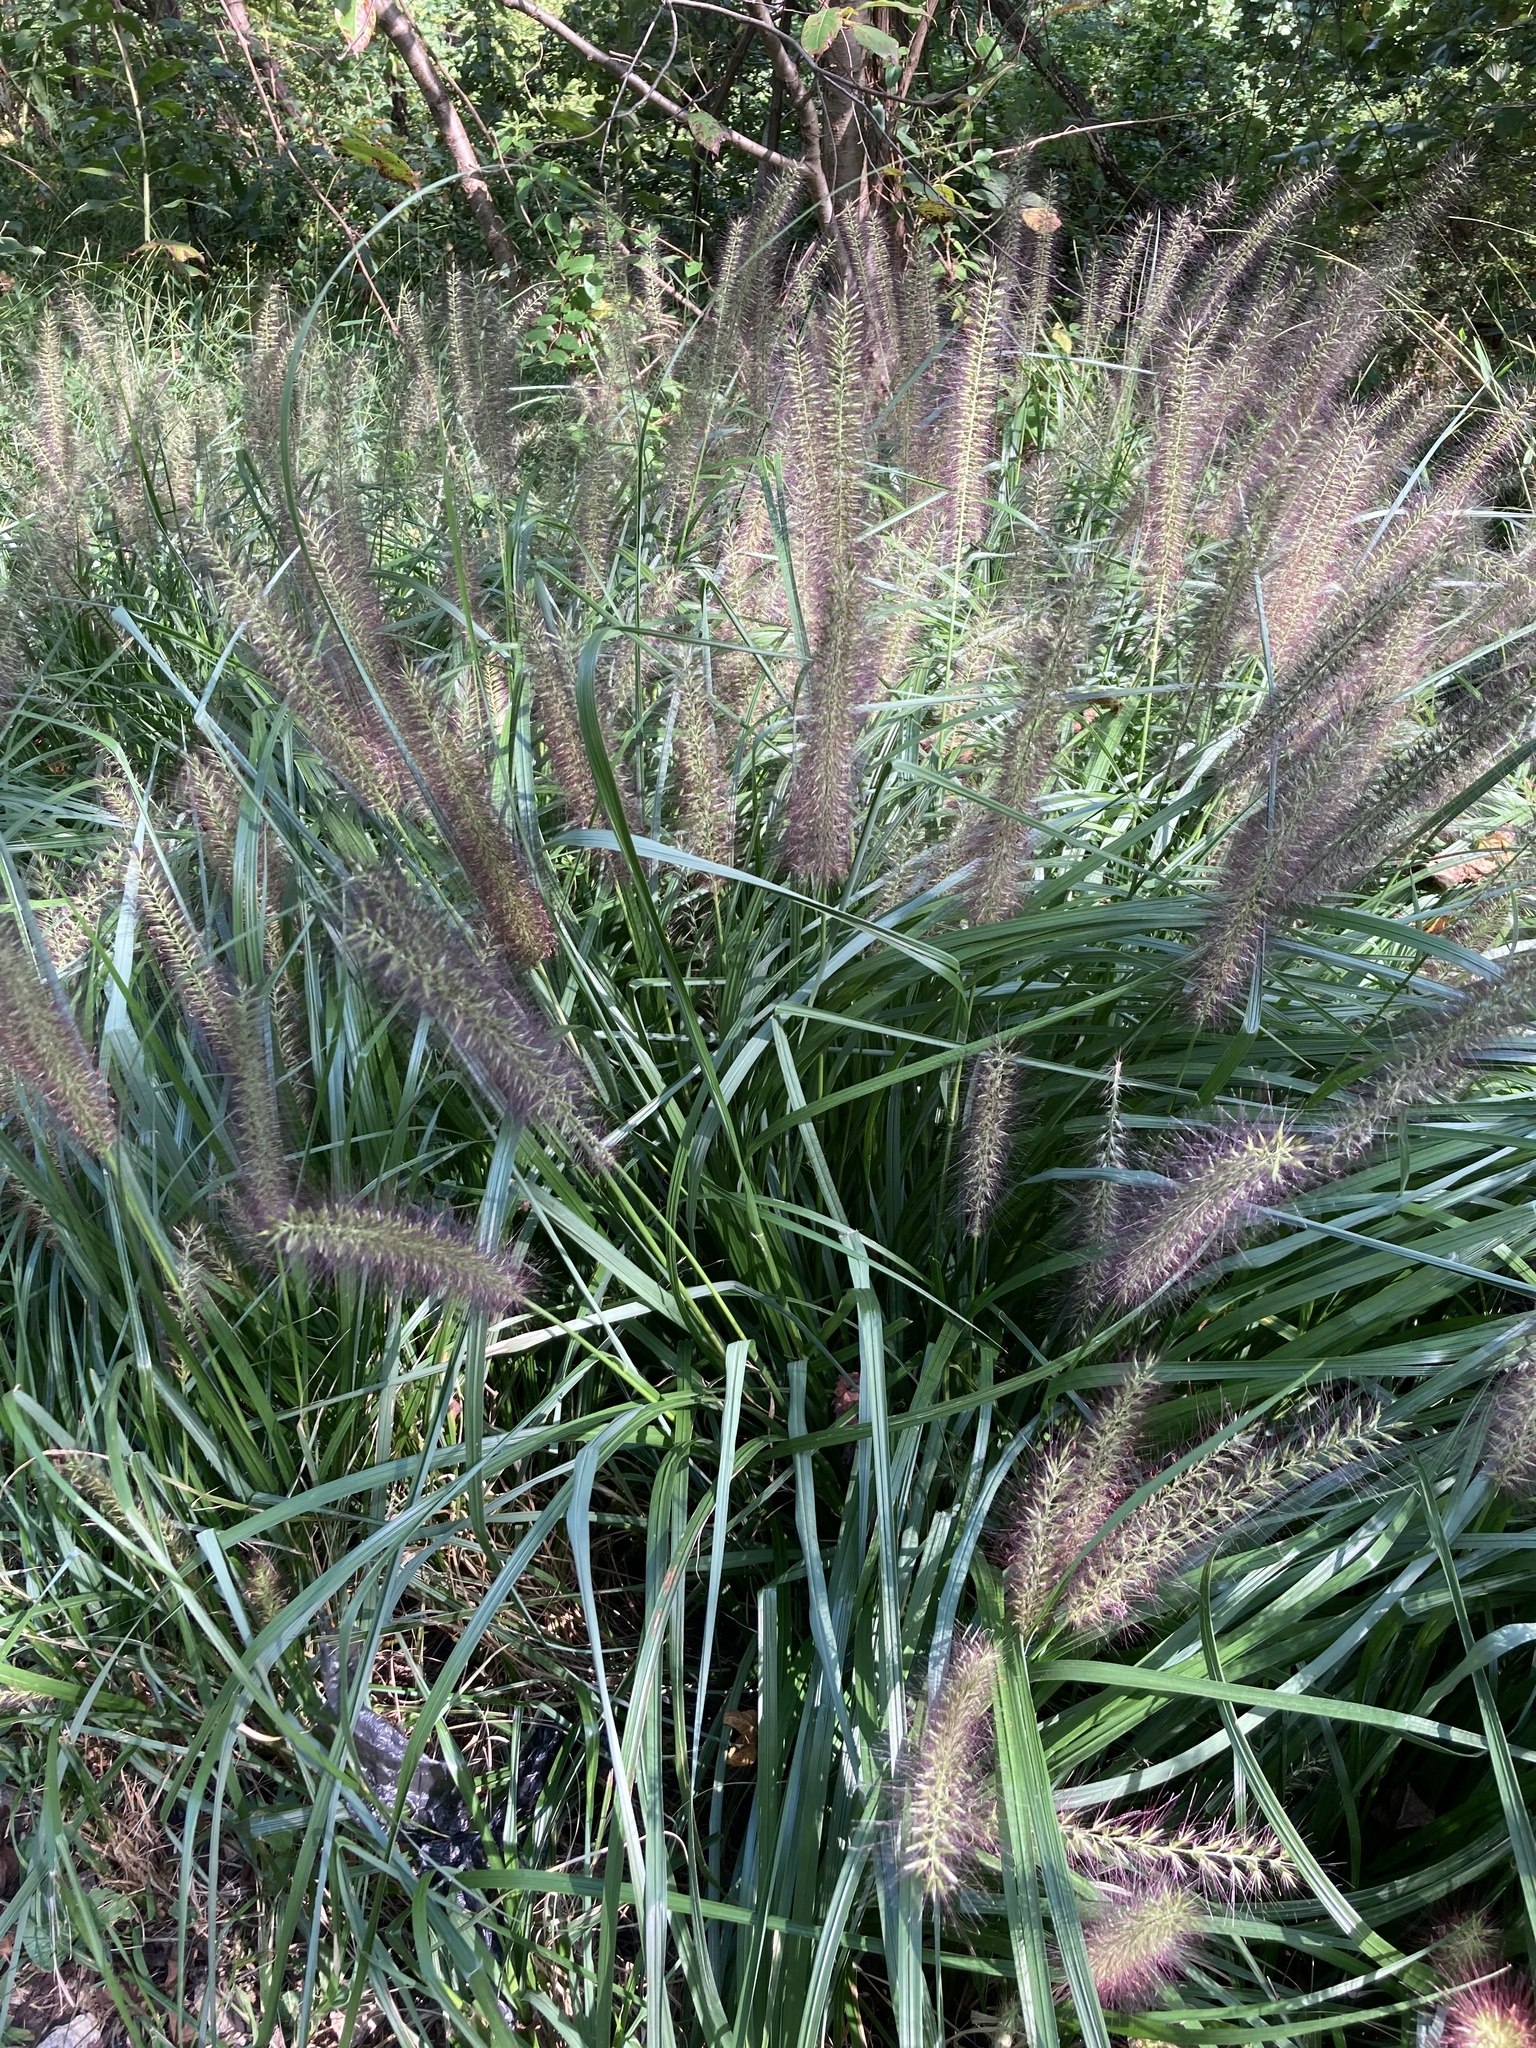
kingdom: Plantae
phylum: Tracheophyta
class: Liliopsida
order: Poales
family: Poaceae
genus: Cenchrus
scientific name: Cenchrus alopecuroides
